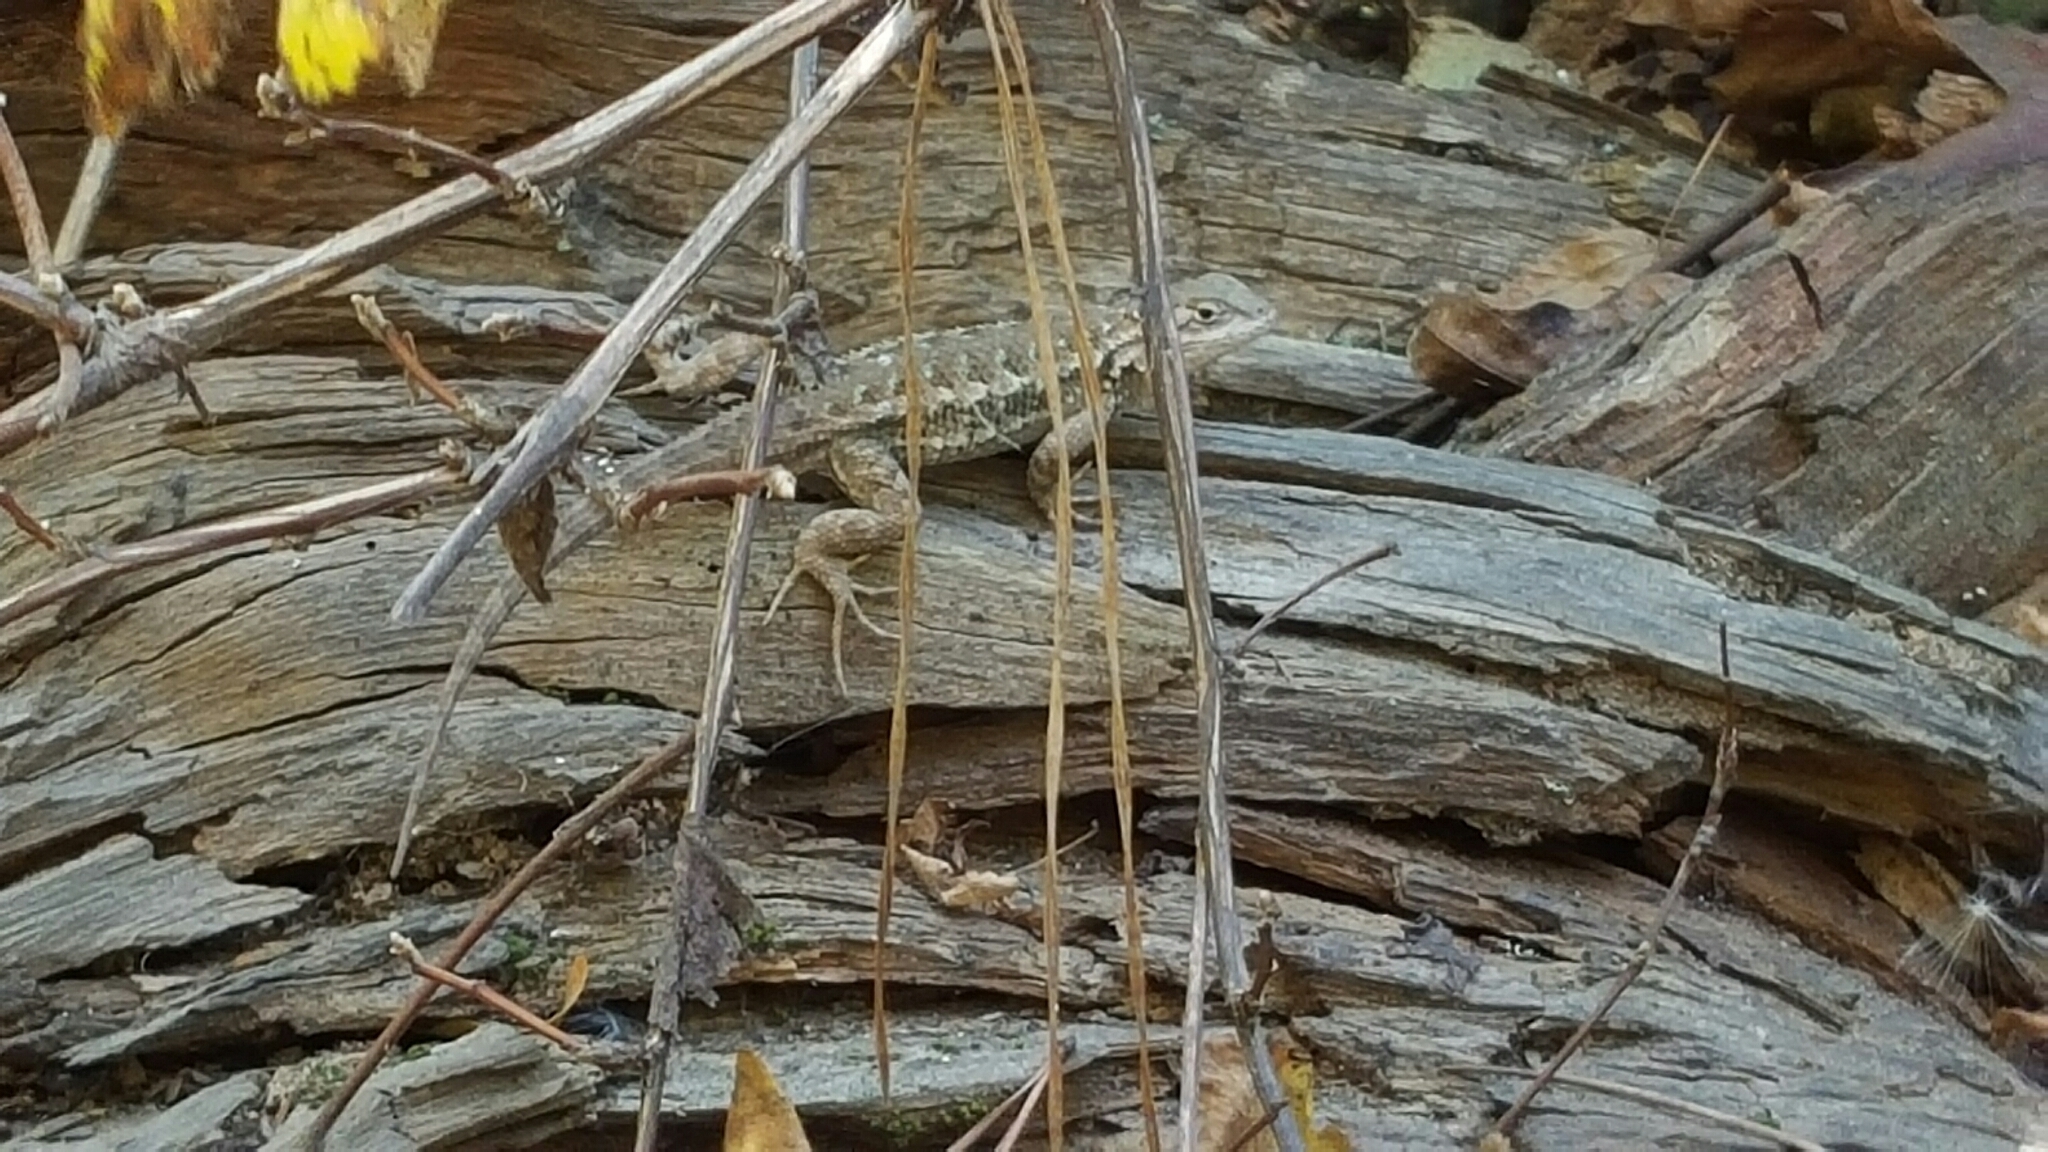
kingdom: Animalia
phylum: Chordata
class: Squamata
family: Phrynosomatidae
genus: Sceloporus
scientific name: Sceloporus occidentalis
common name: Western fence lizard
